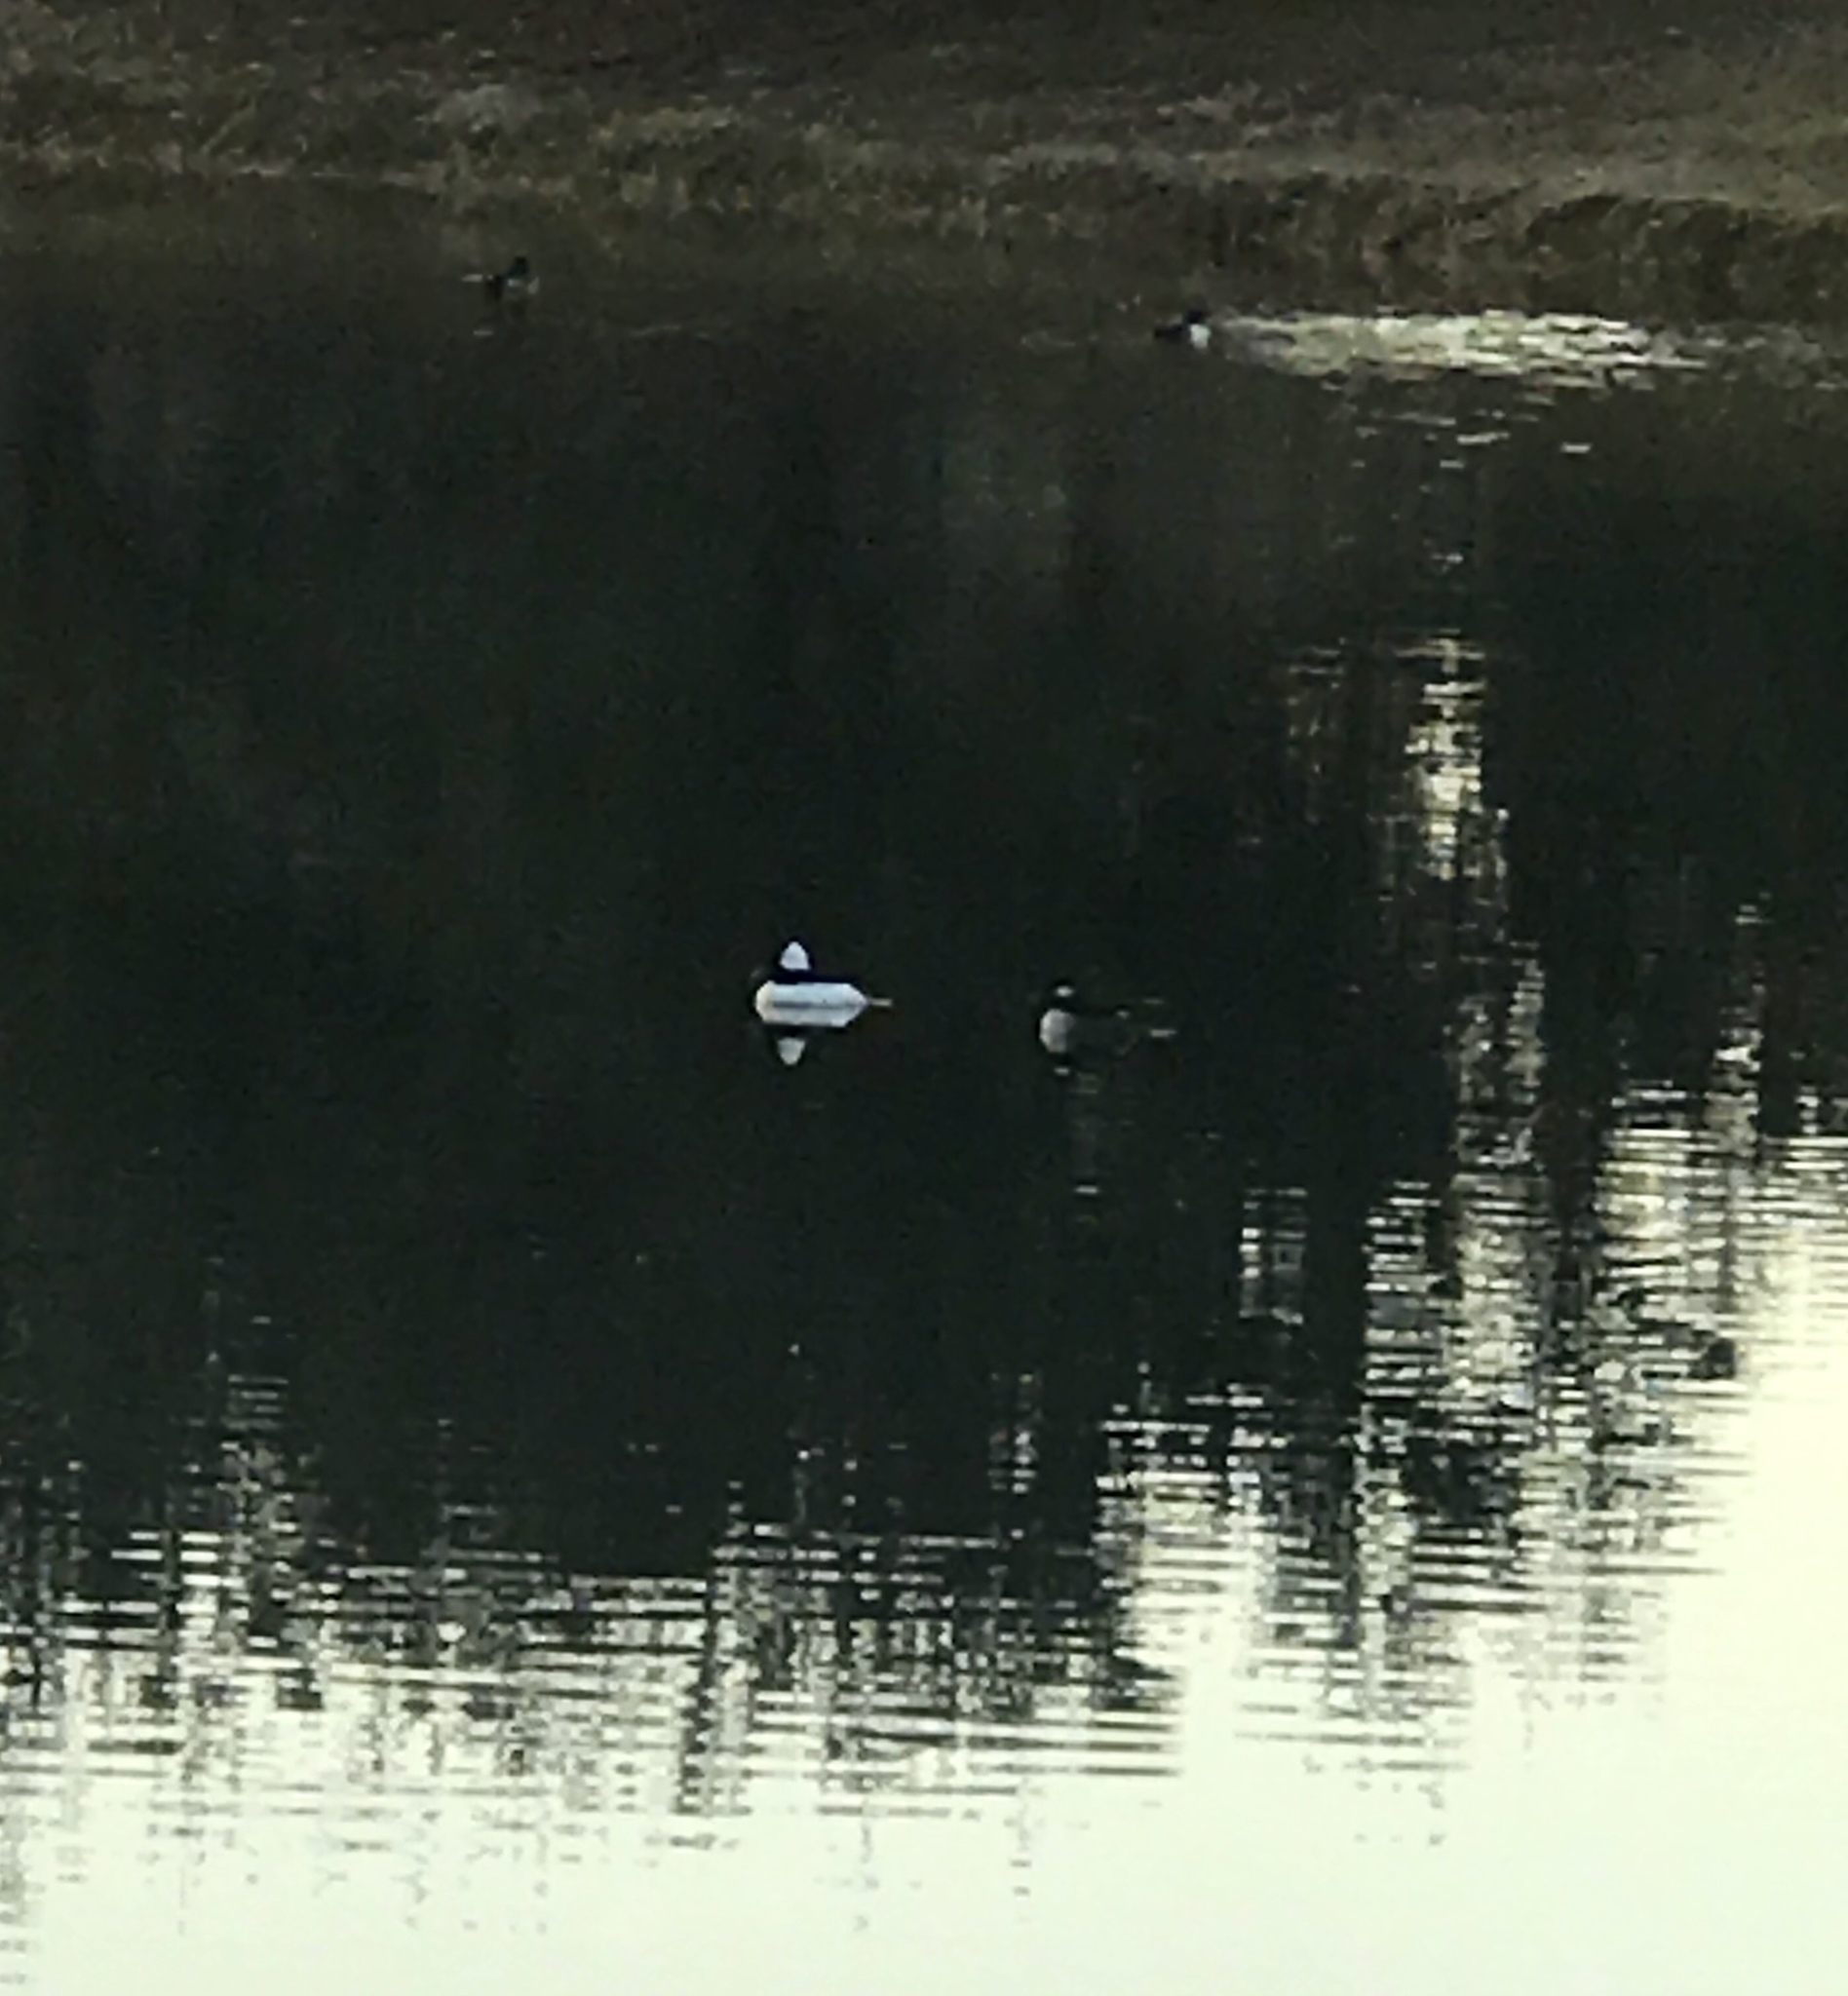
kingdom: Animalia
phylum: Chordata
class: Aves
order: Anseriformes
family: Anatidae
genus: Bucephala
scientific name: Bucephala albeola
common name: Bufflehead
